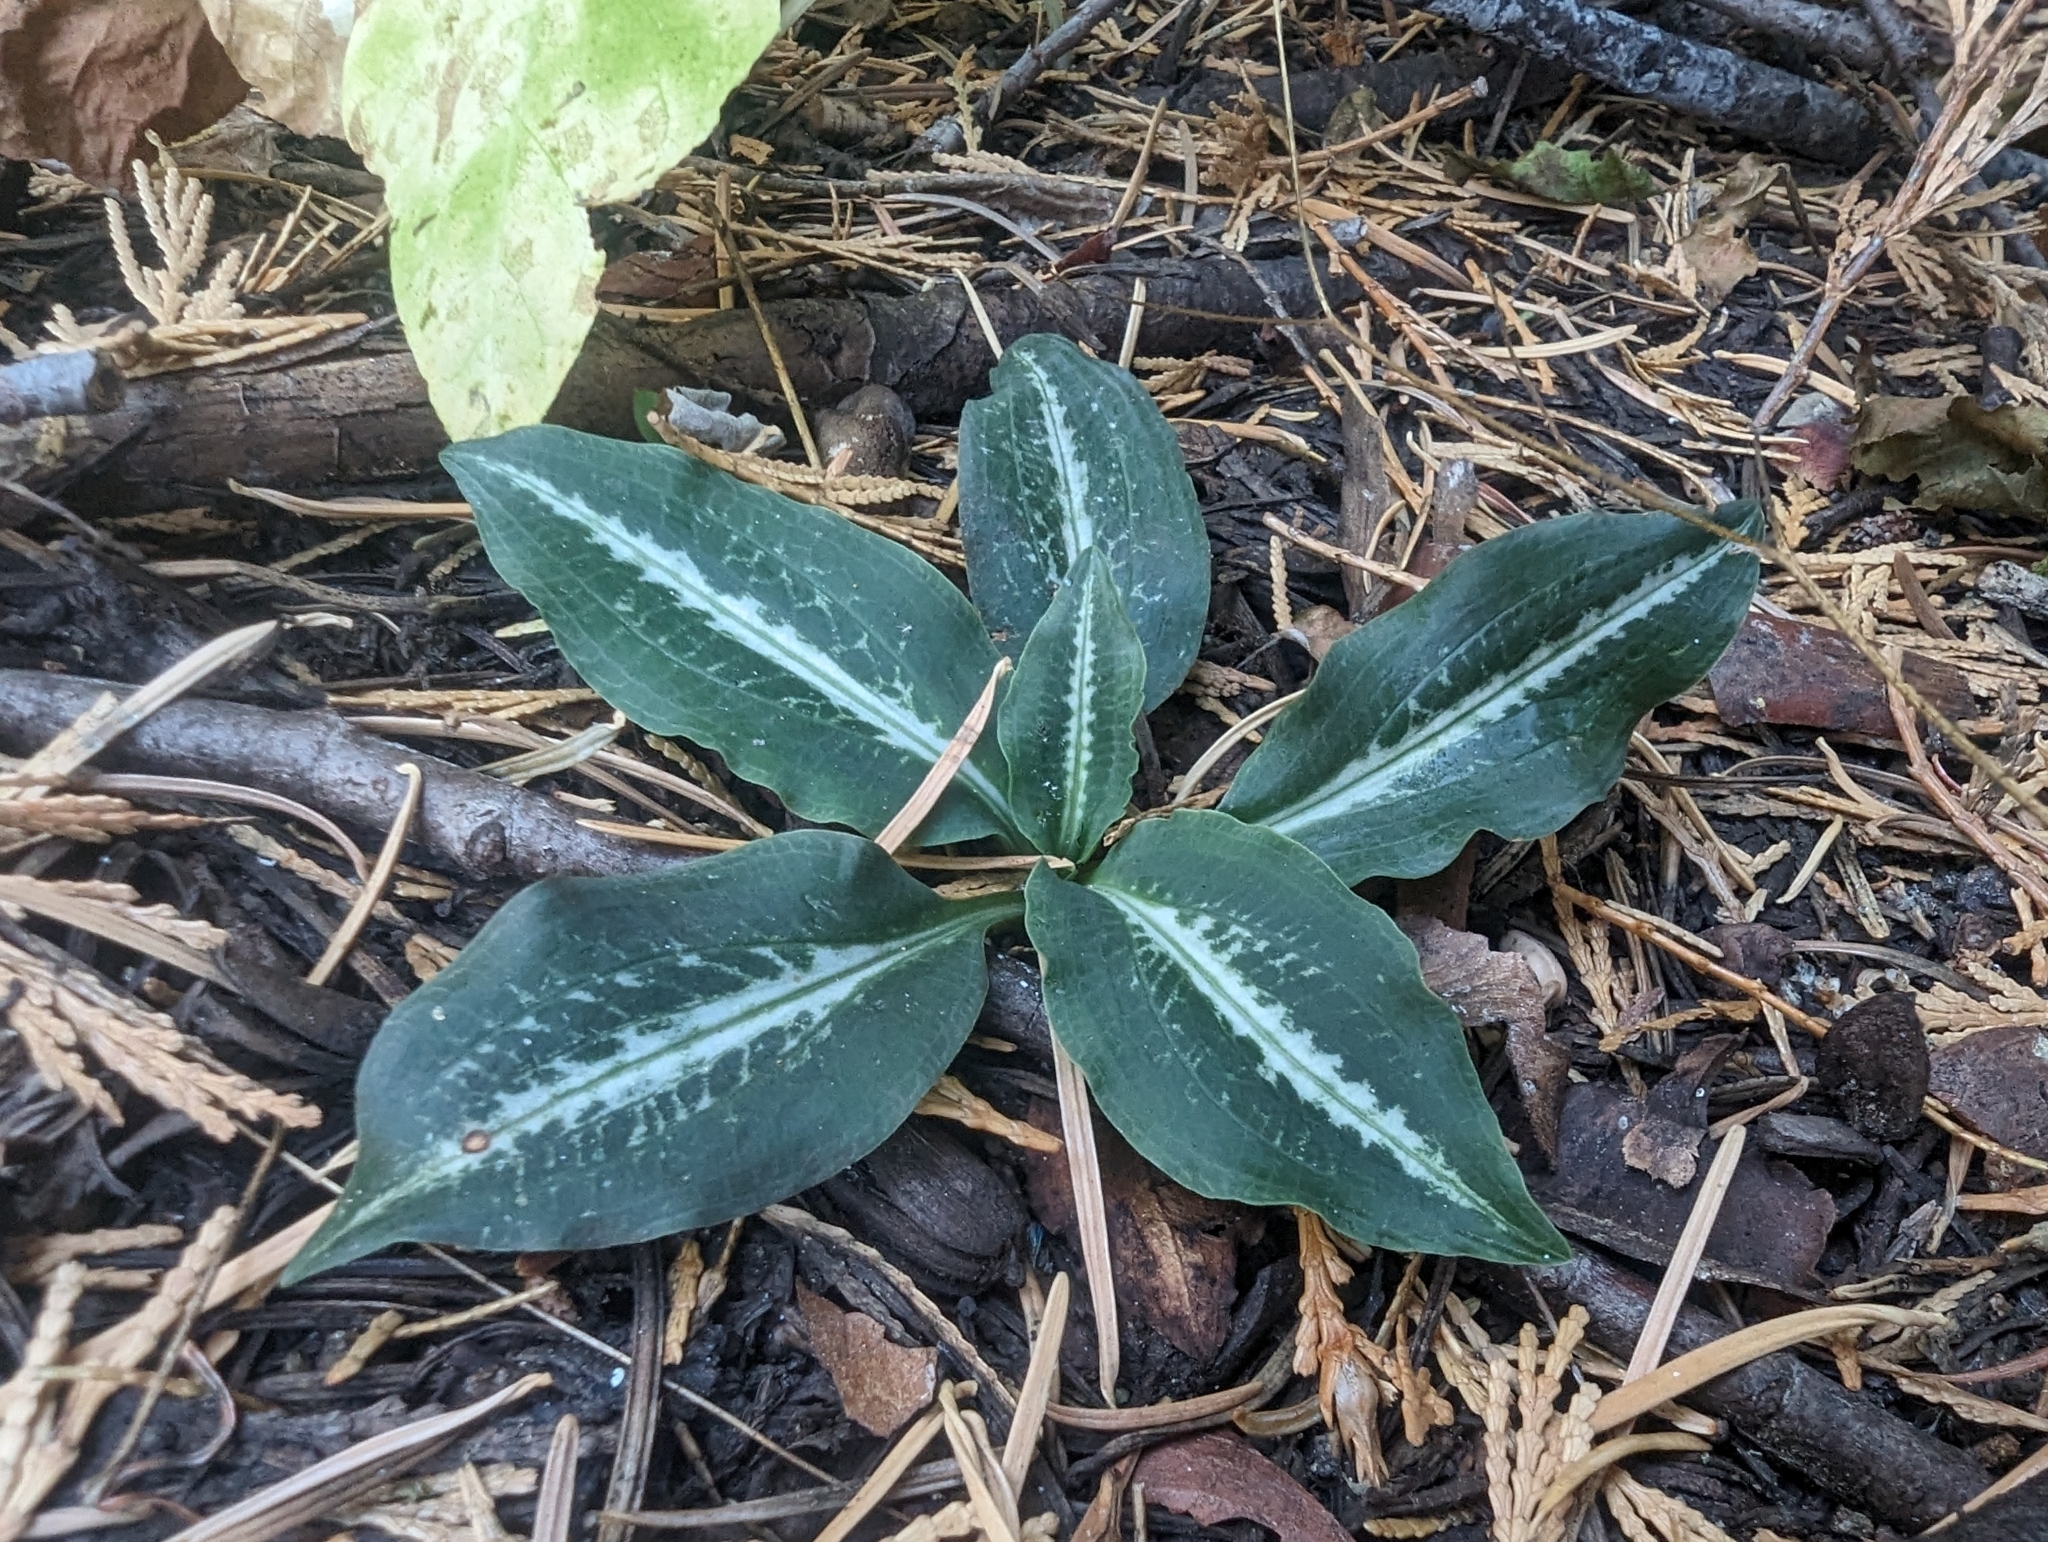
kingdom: Plantae
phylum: Tracheophyta
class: Liliopsida
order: Asparagales
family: Orchidaceae
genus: Goodyera
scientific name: Goodyera oblongifolia
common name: Giant rattlesnake-plantain
